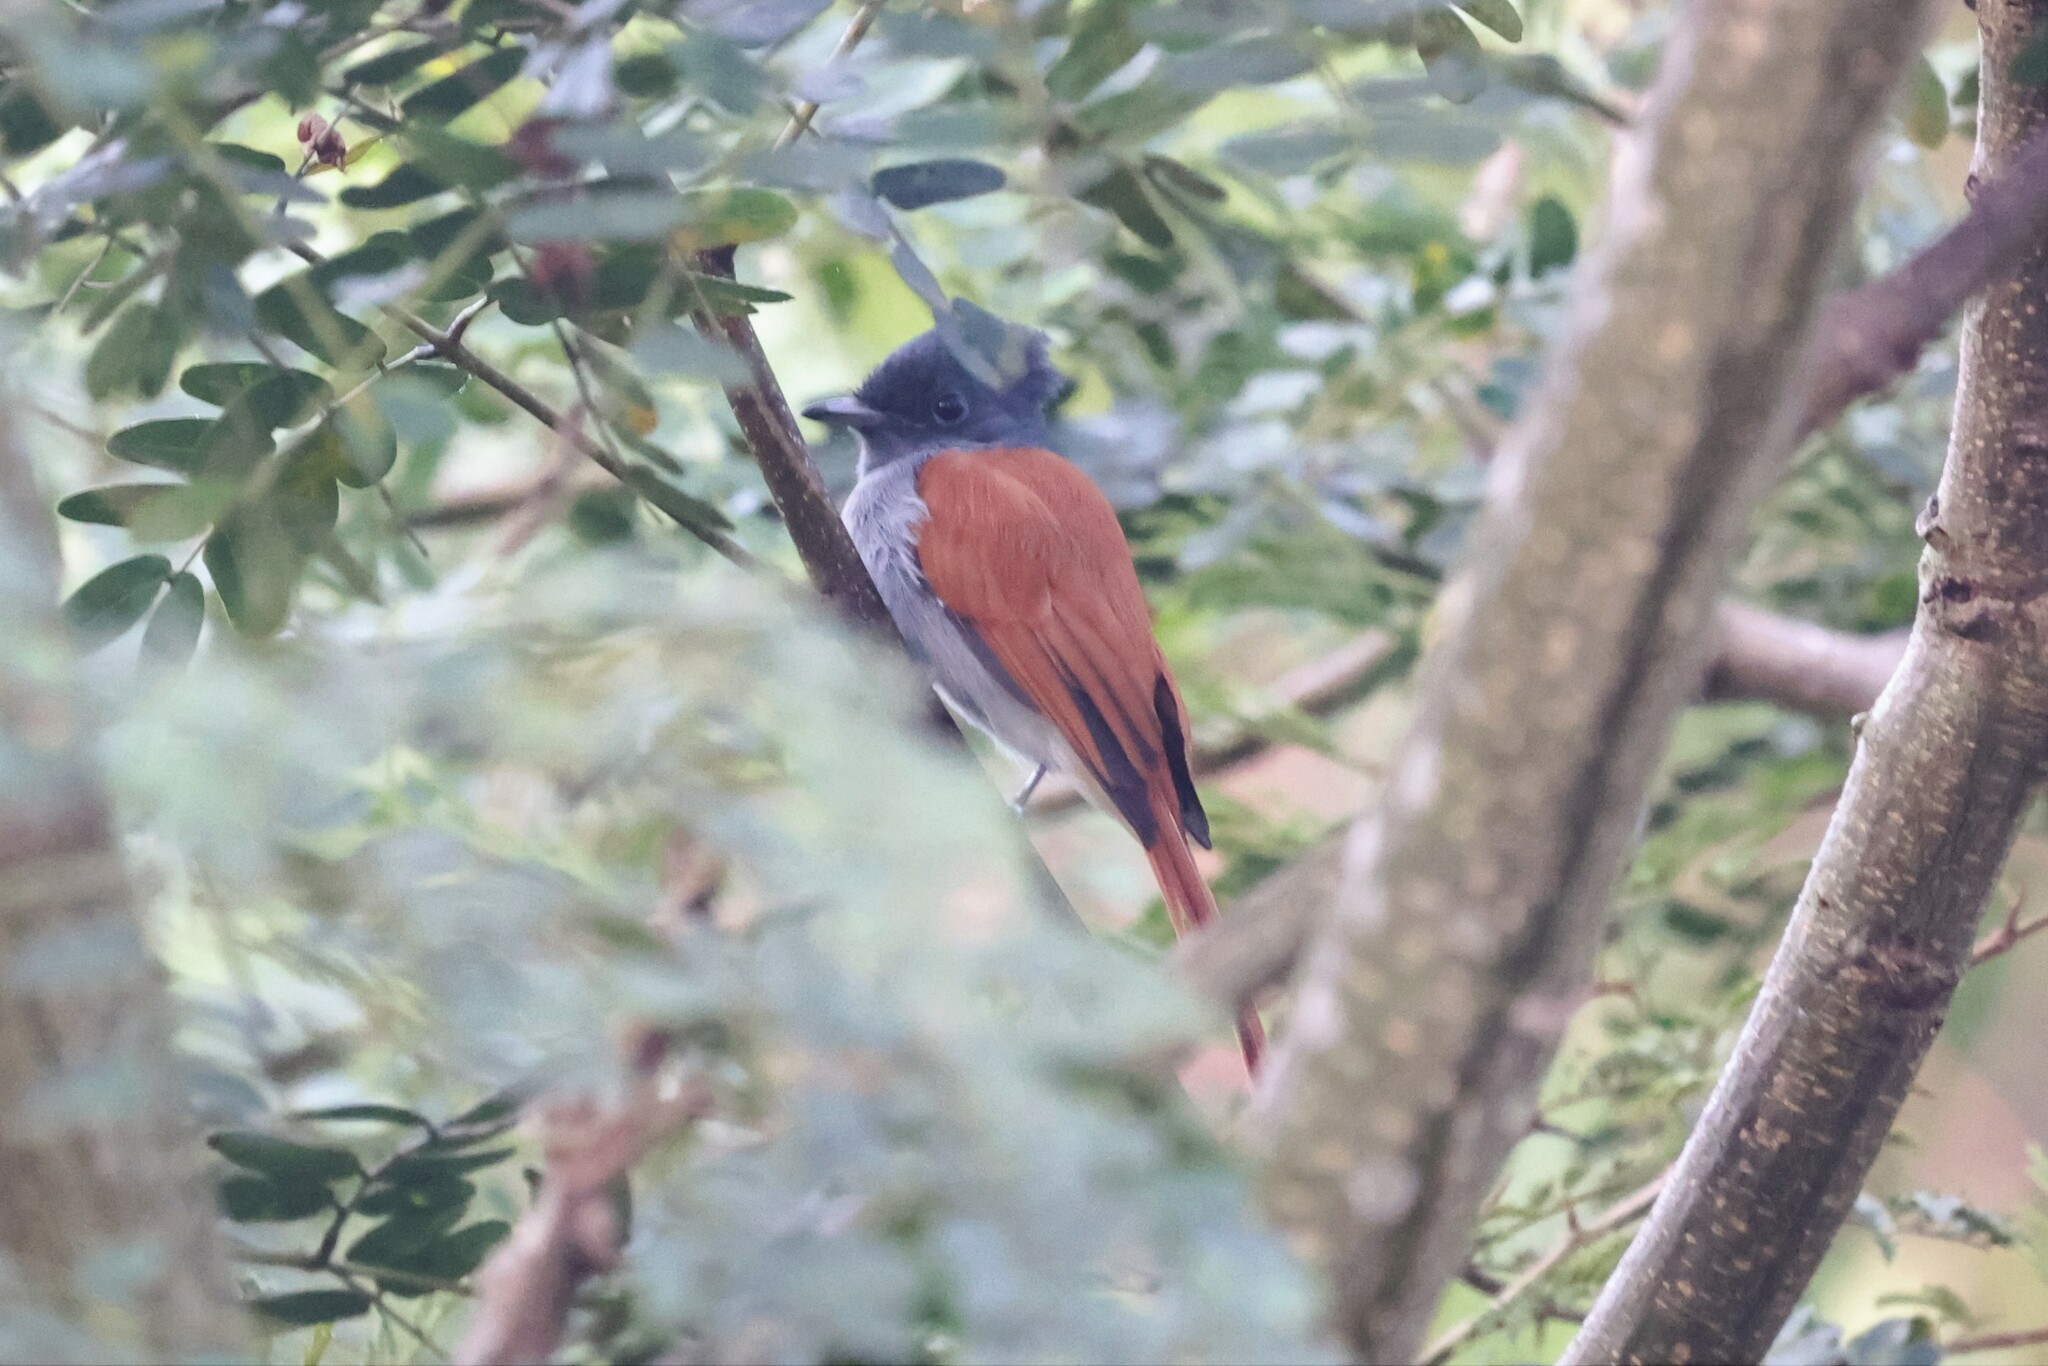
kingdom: Animalia
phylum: Chordata
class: Aves
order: Passeriformes
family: Monarchidae
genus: Terpsiphone
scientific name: Terpsiphone viridis
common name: African paradise flycatcher
